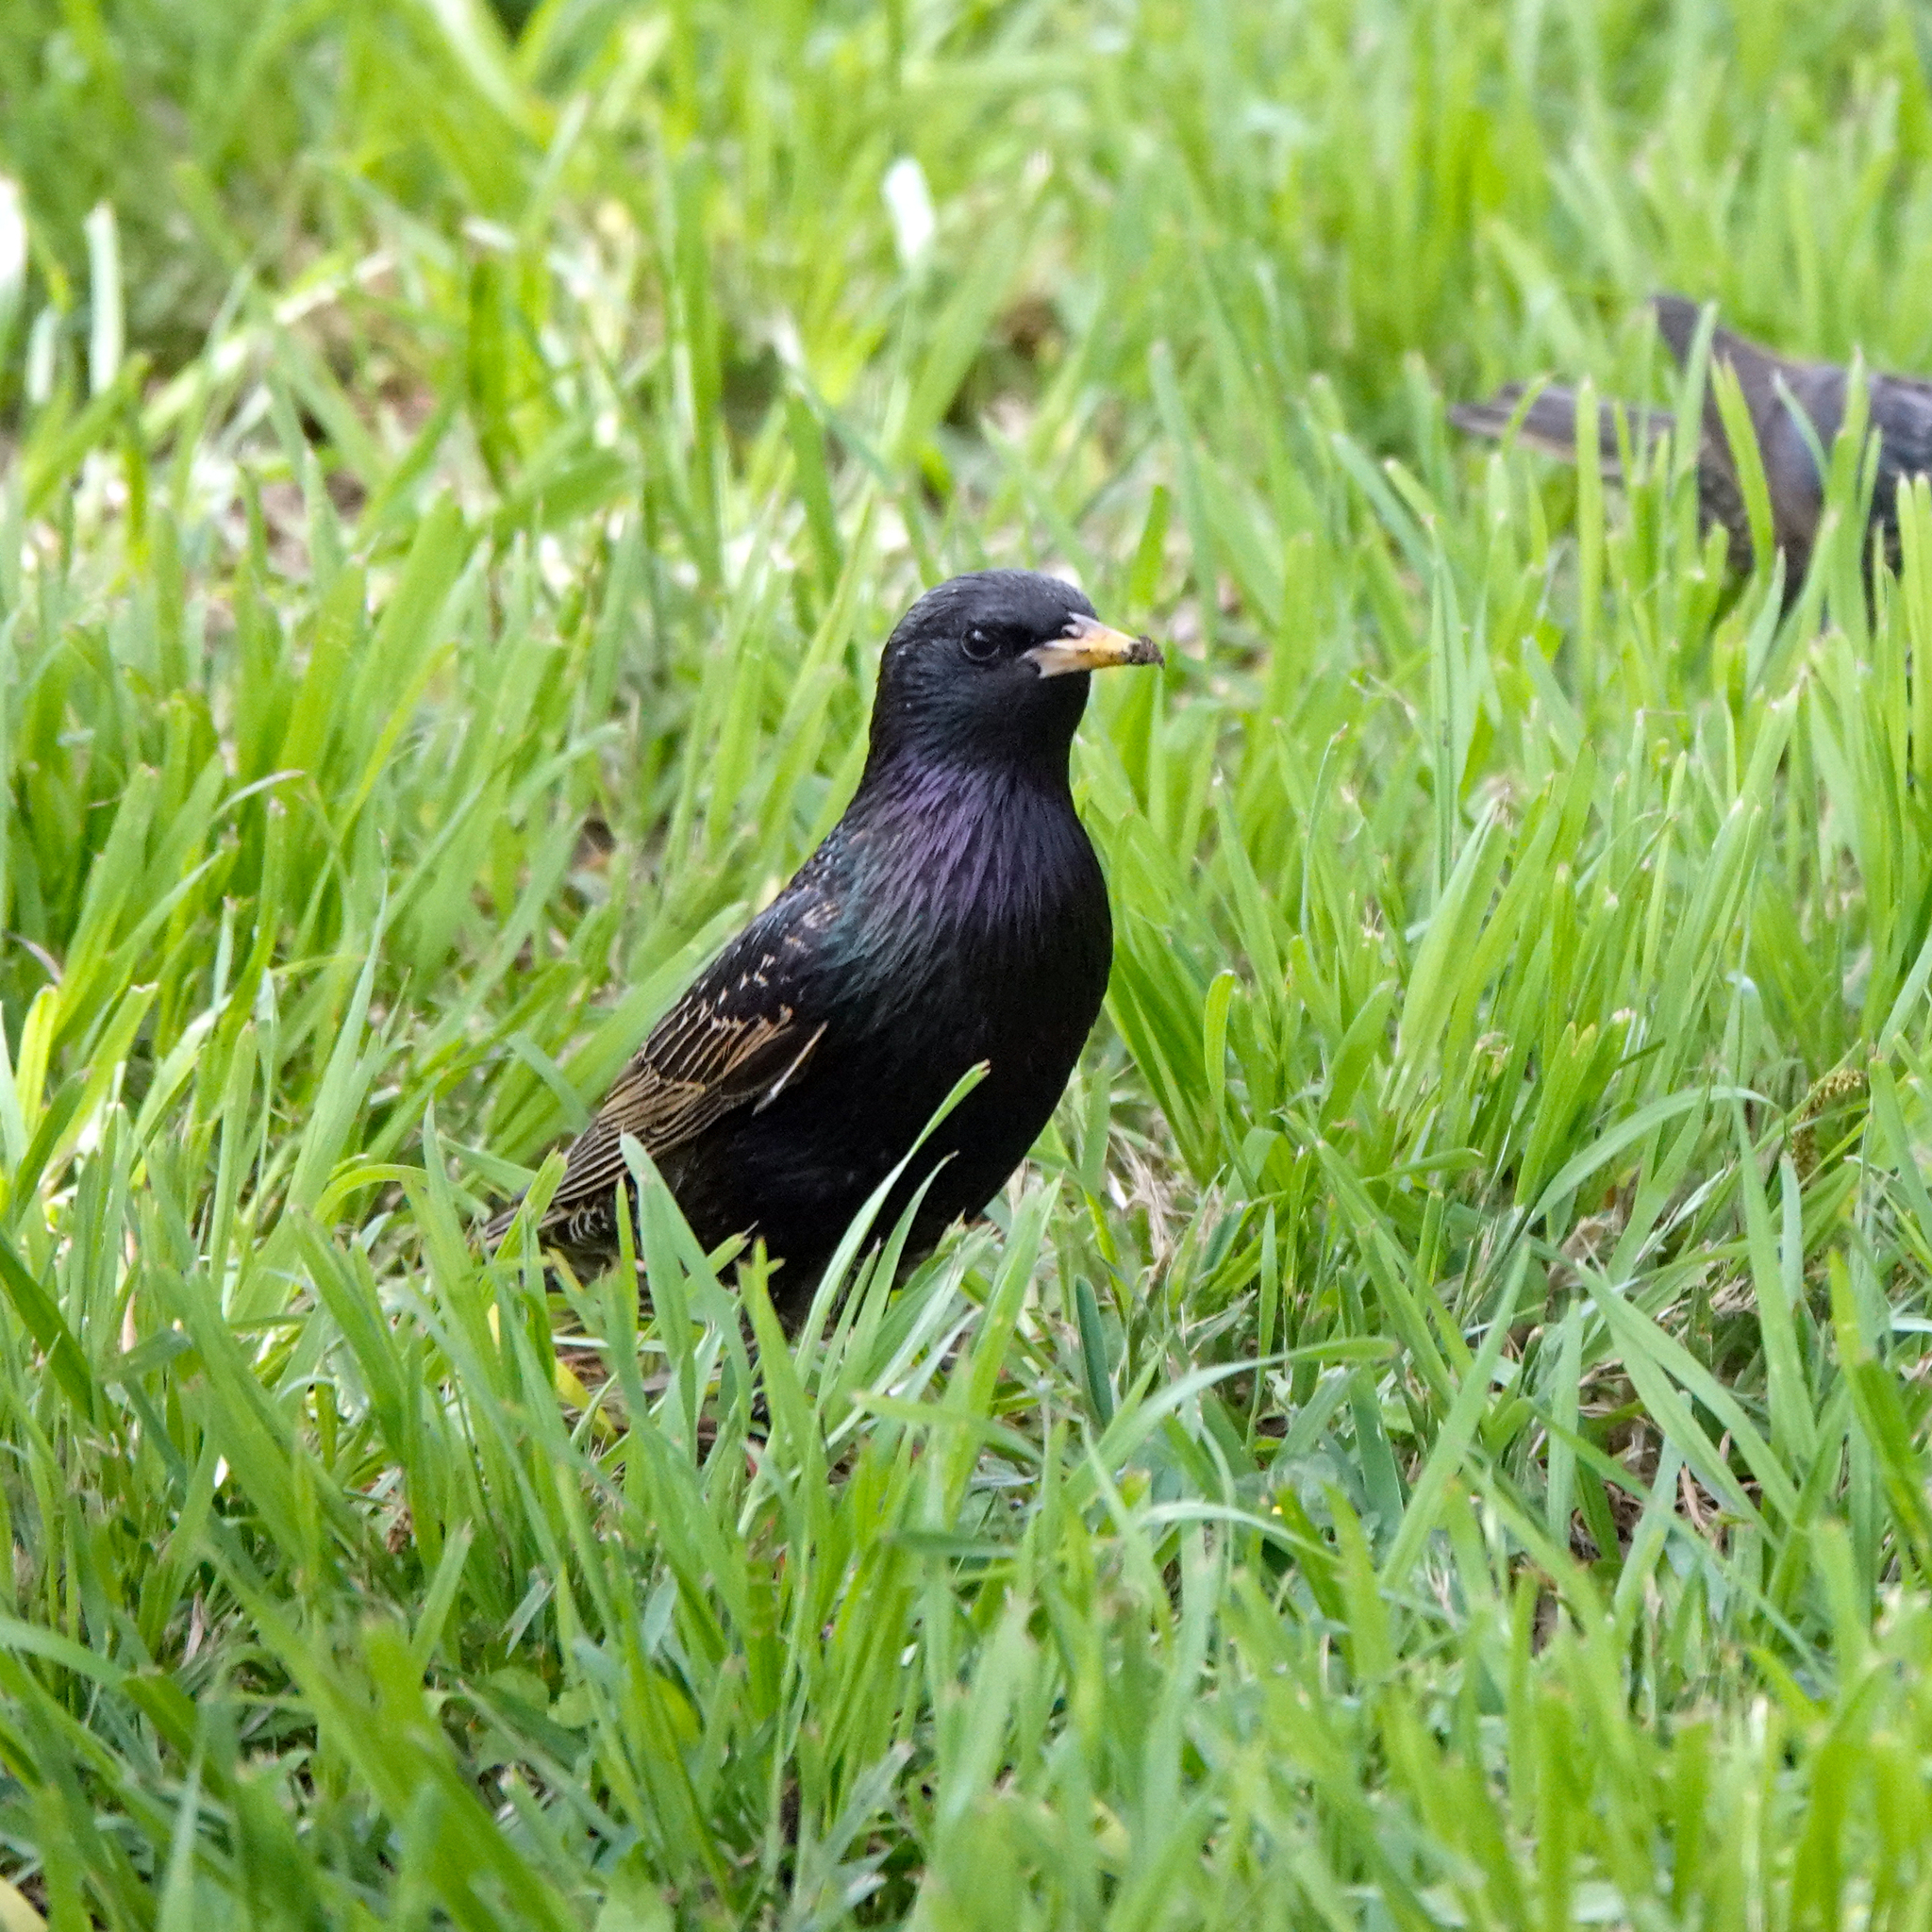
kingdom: Animalia
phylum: Chordata
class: Aves
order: Passeriformes
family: Sturnidae
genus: Sturnus
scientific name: Sturnus vulgaris
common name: Common starling
